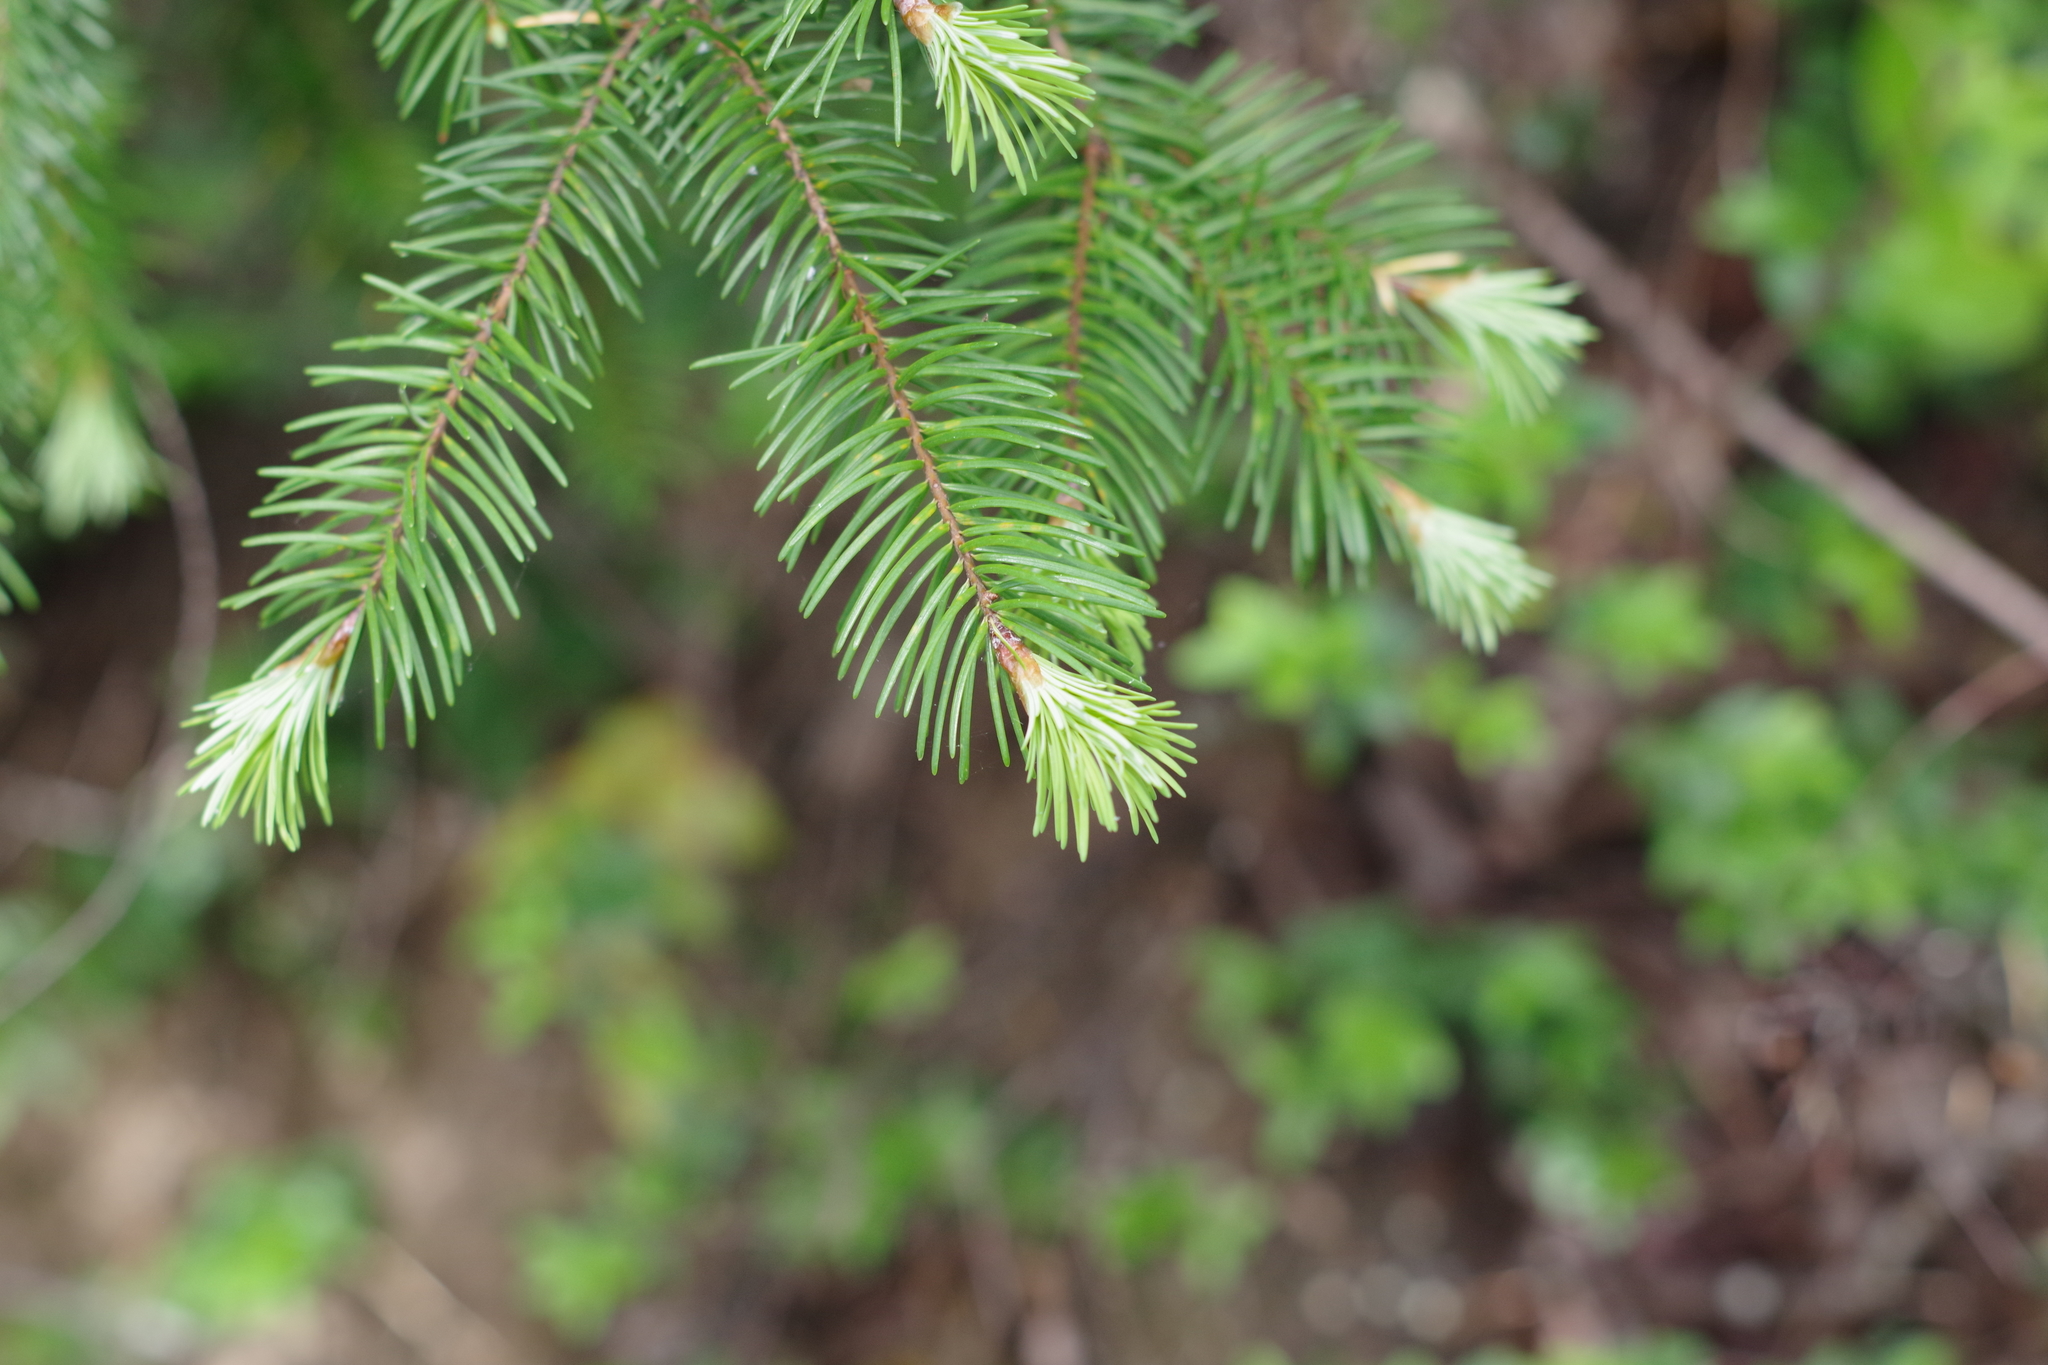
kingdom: Plantae
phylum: Tracheophyta
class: Pinopsida
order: Pinales
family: Pinaceae
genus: Pseudotsuga
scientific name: Pseudotsuga menziesii
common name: Douglas fir
